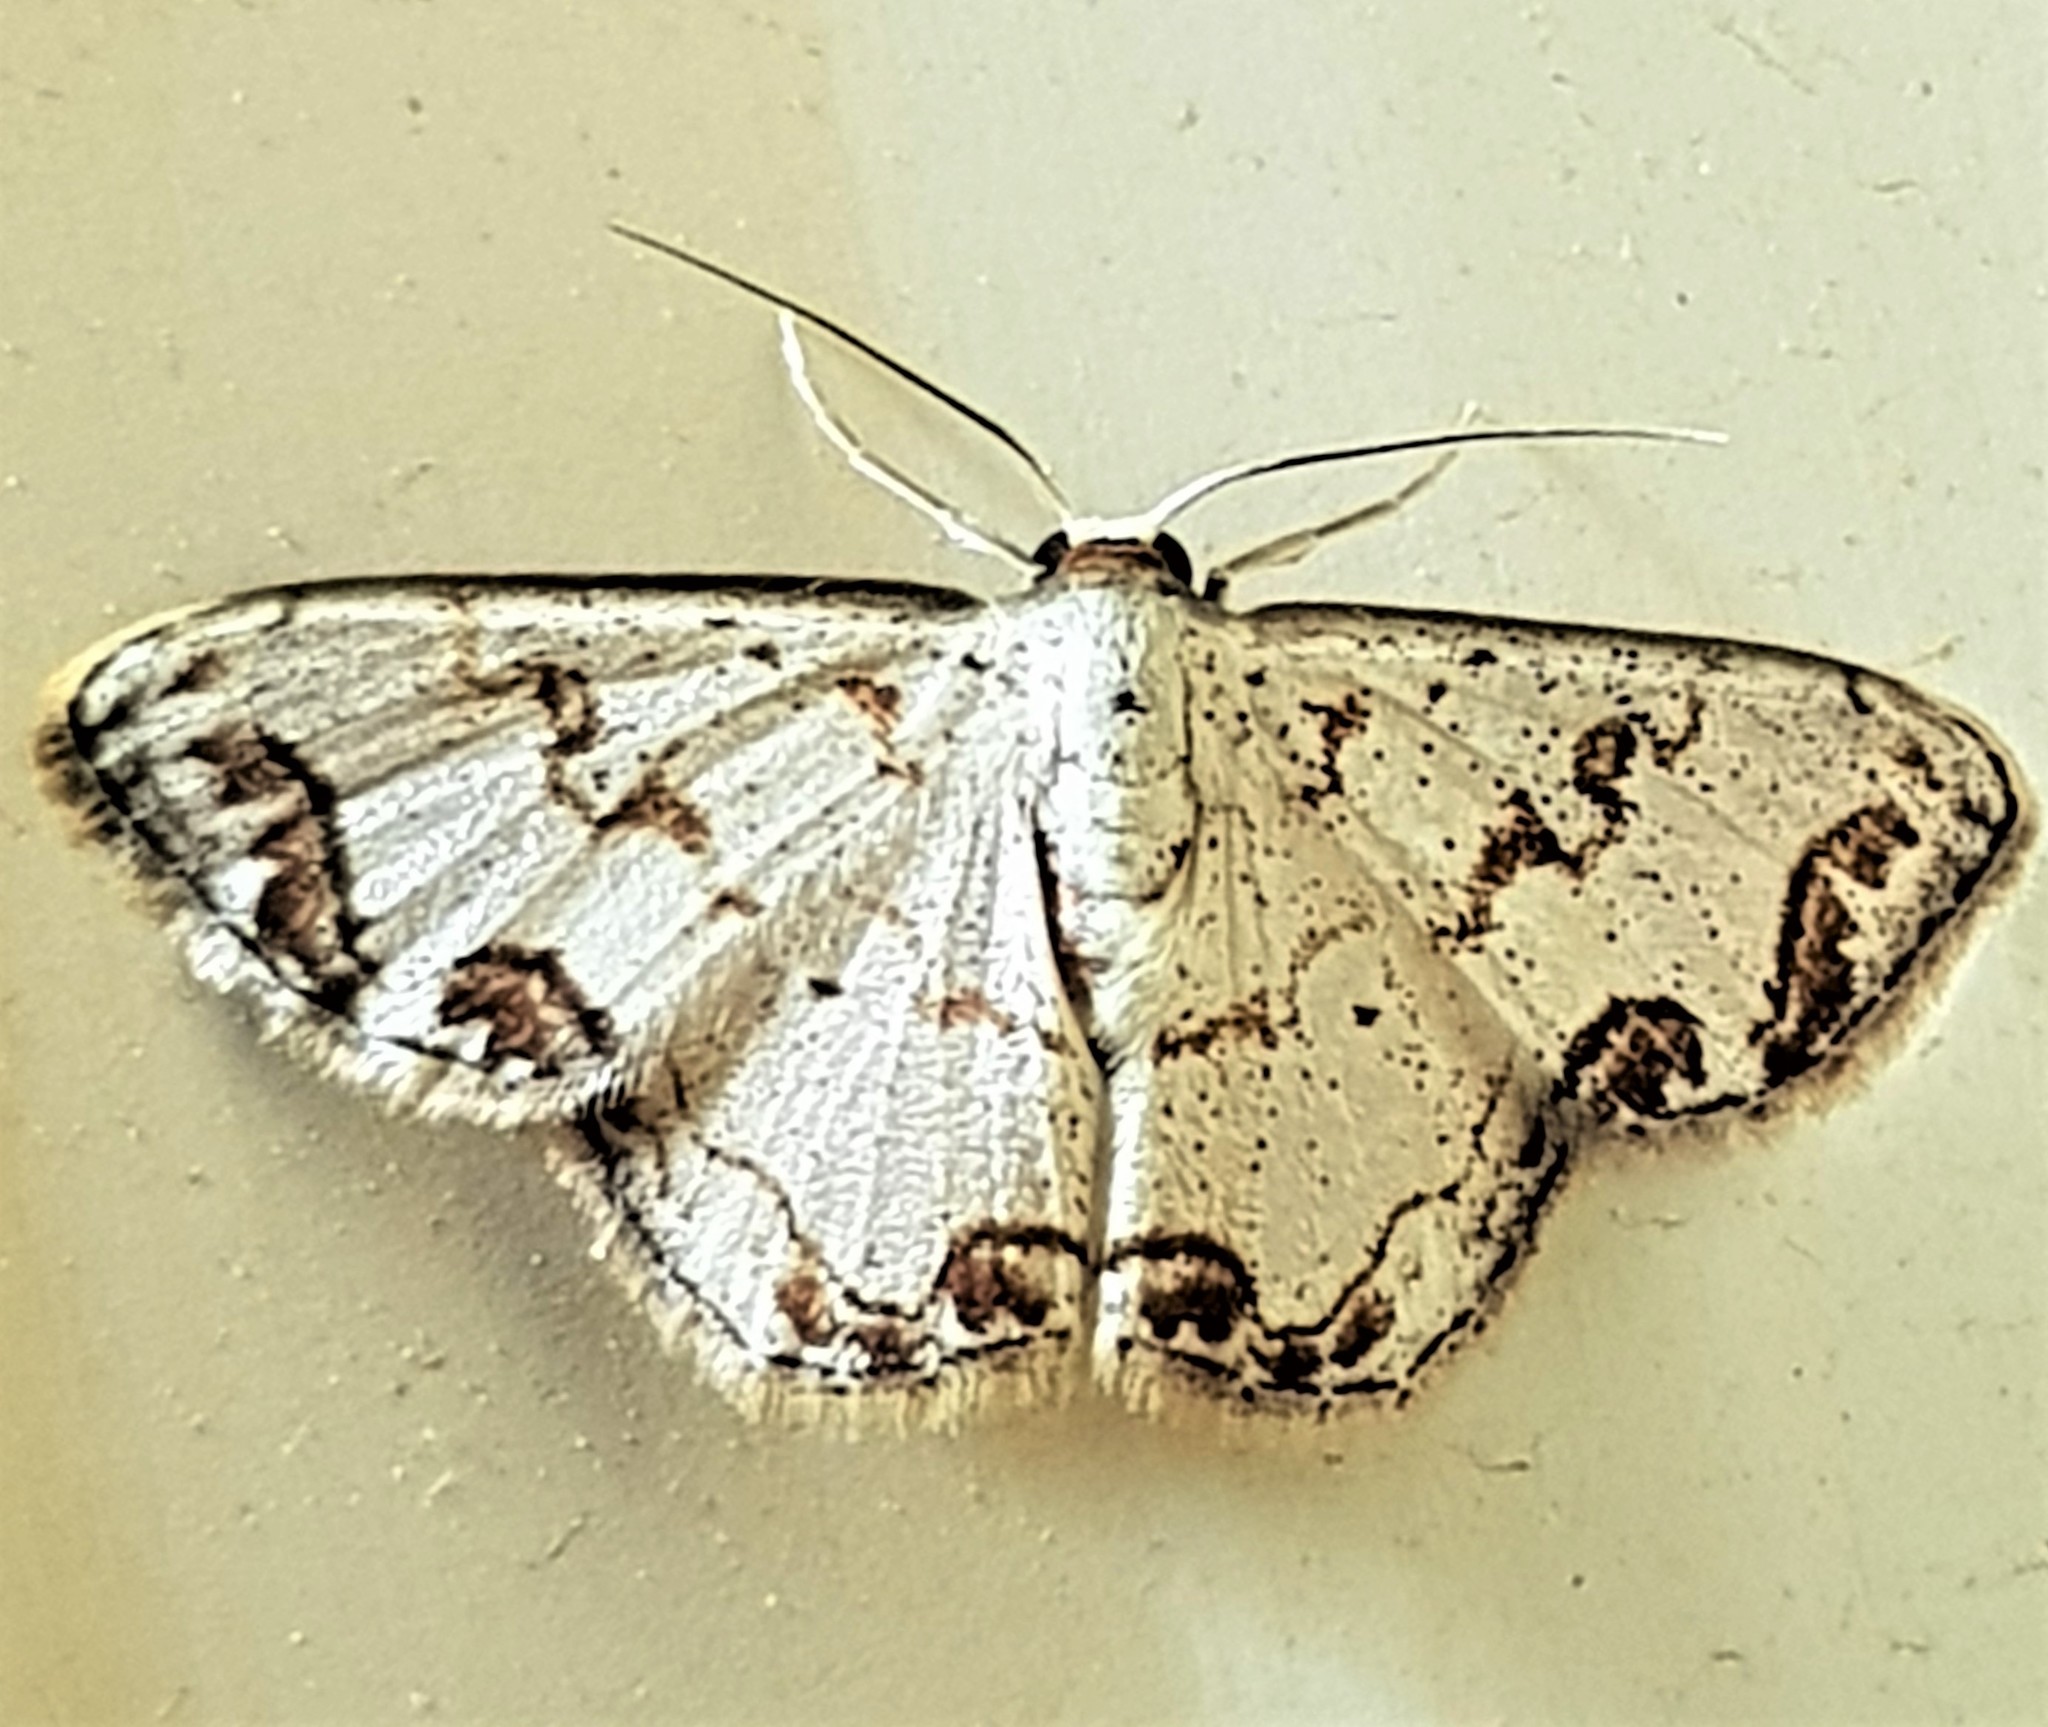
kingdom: Animalia
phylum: Arthropoda
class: Insecta
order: Lepidoptera
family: Geometridae
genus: Idaea
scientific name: Idaea expolitata
